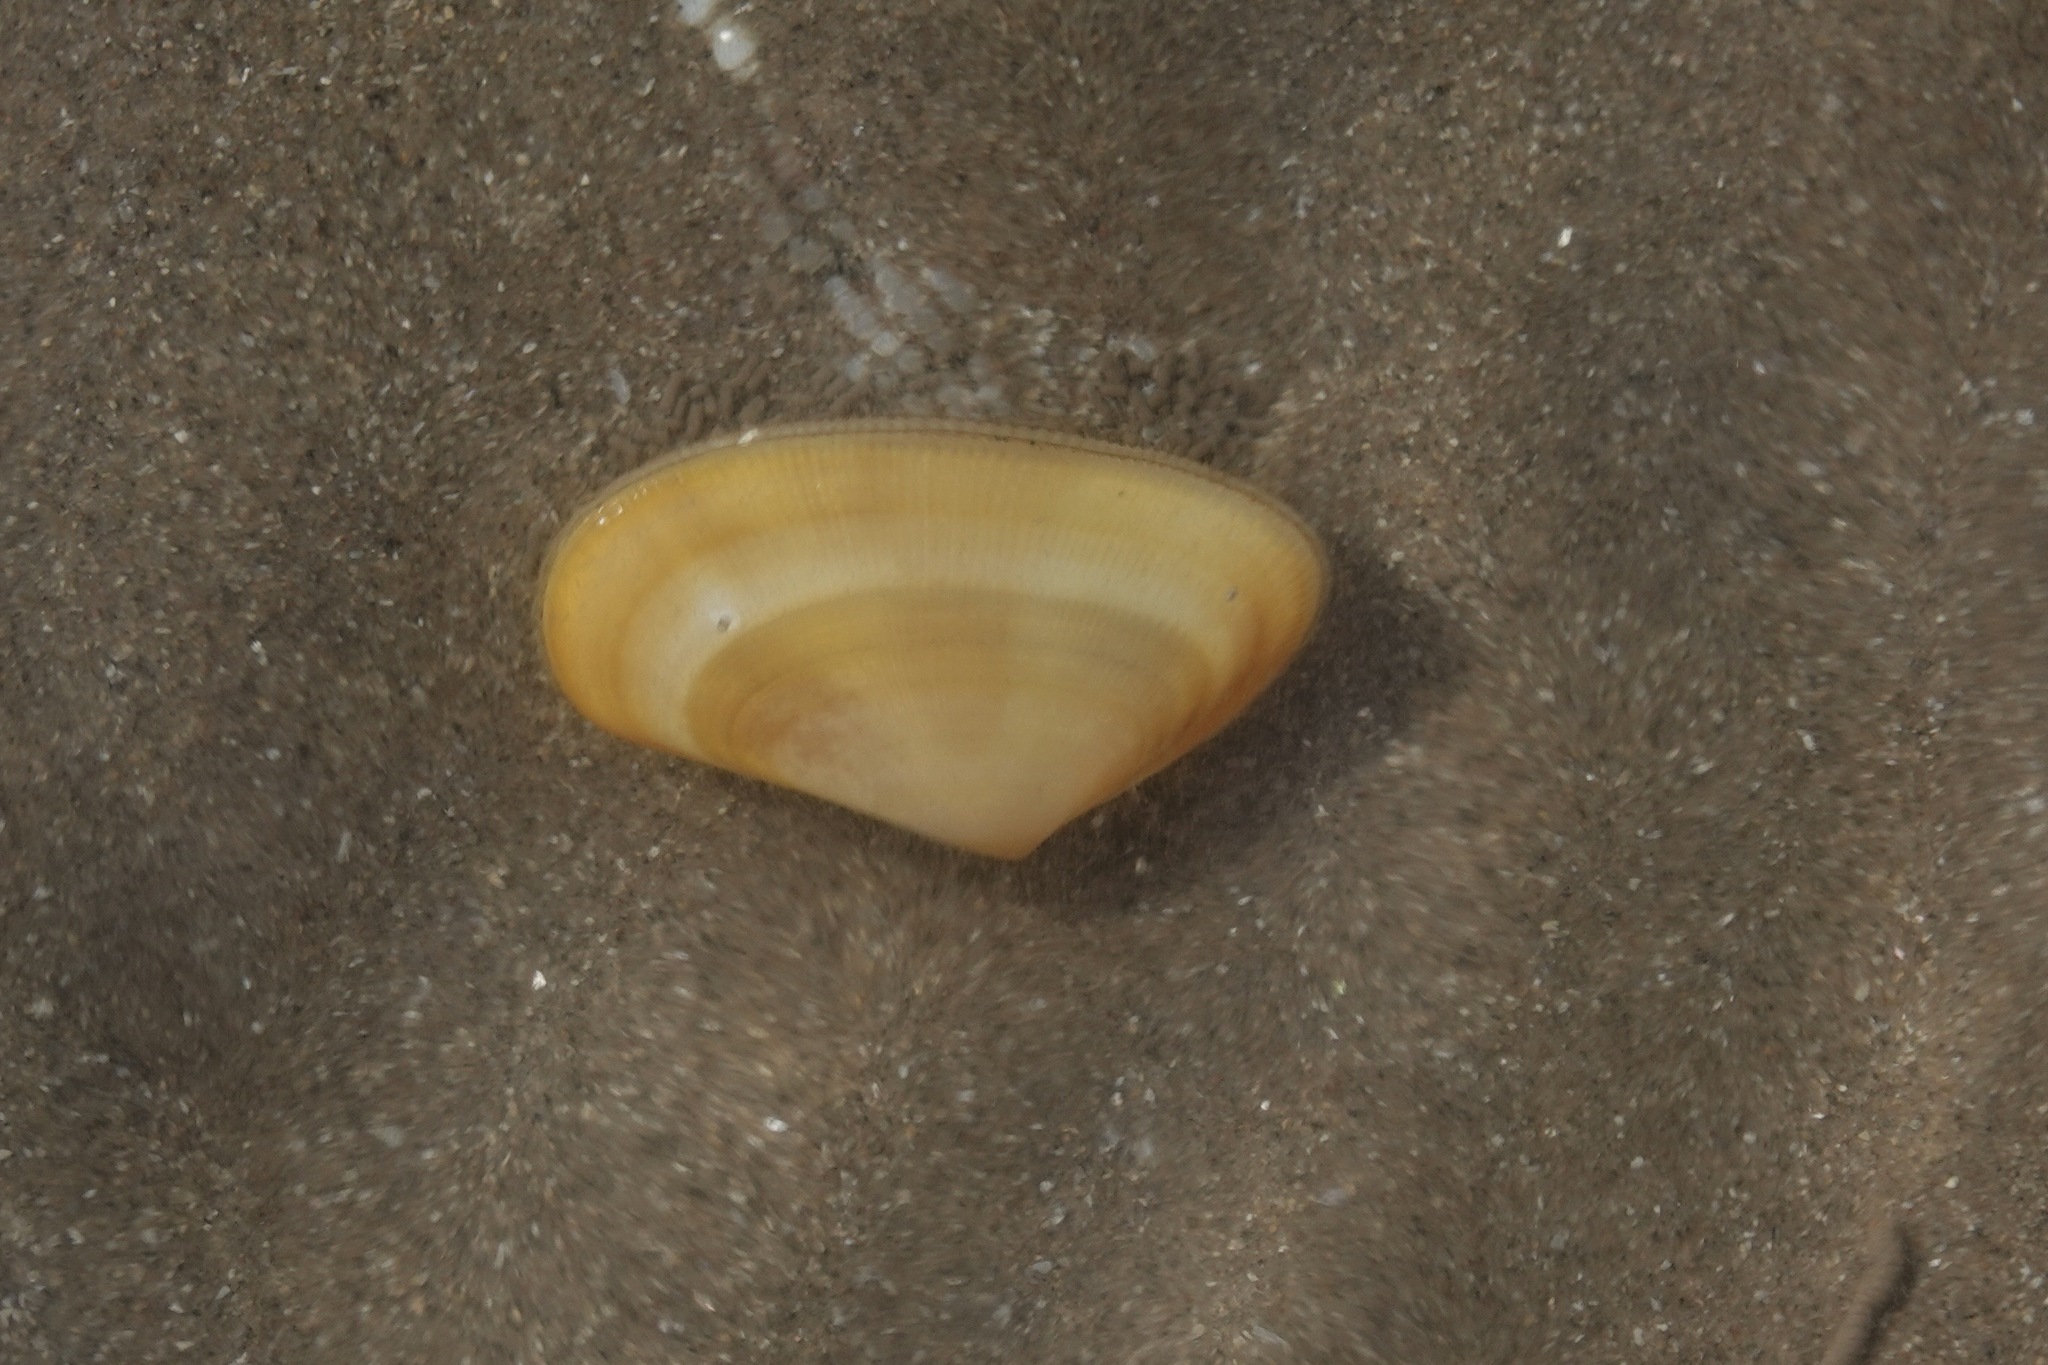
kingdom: Animalia
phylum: Mollusca
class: Bivalvia
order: Cardiida
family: Donacidae
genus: Donax
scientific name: Donax vittatus
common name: Banded wedge-shell
